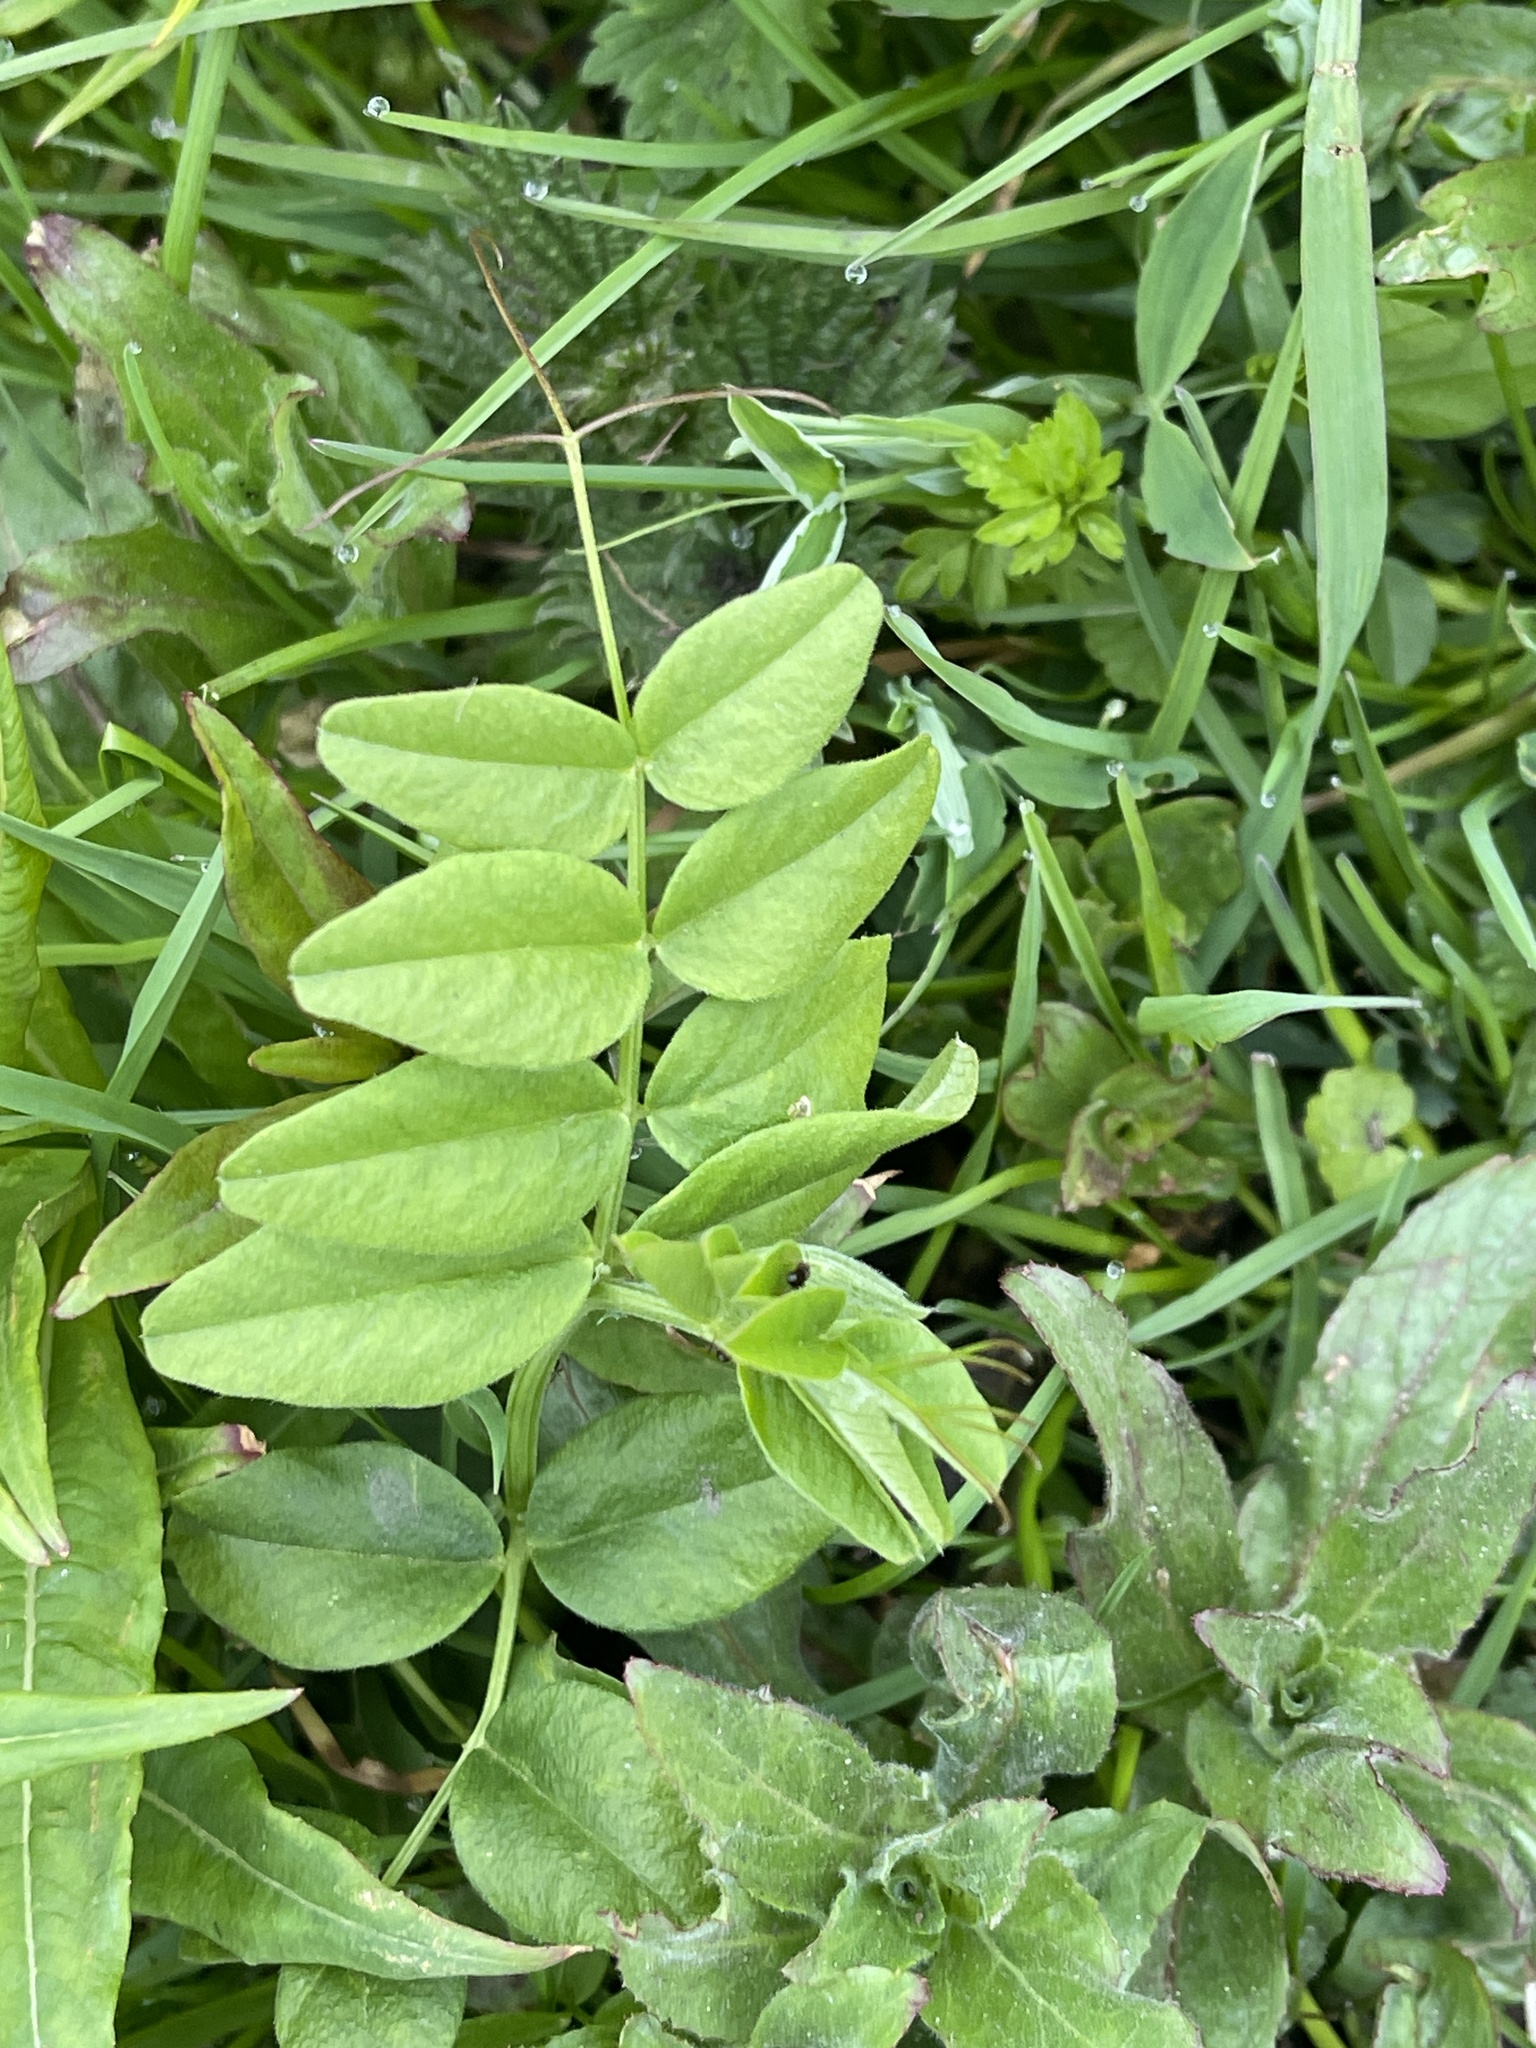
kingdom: Plantae
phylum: Tracheophyta
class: Magnoliopsida
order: Fabales
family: Fabaceae
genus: Vicia
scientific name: Vicia sepium
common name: Bush vetch
